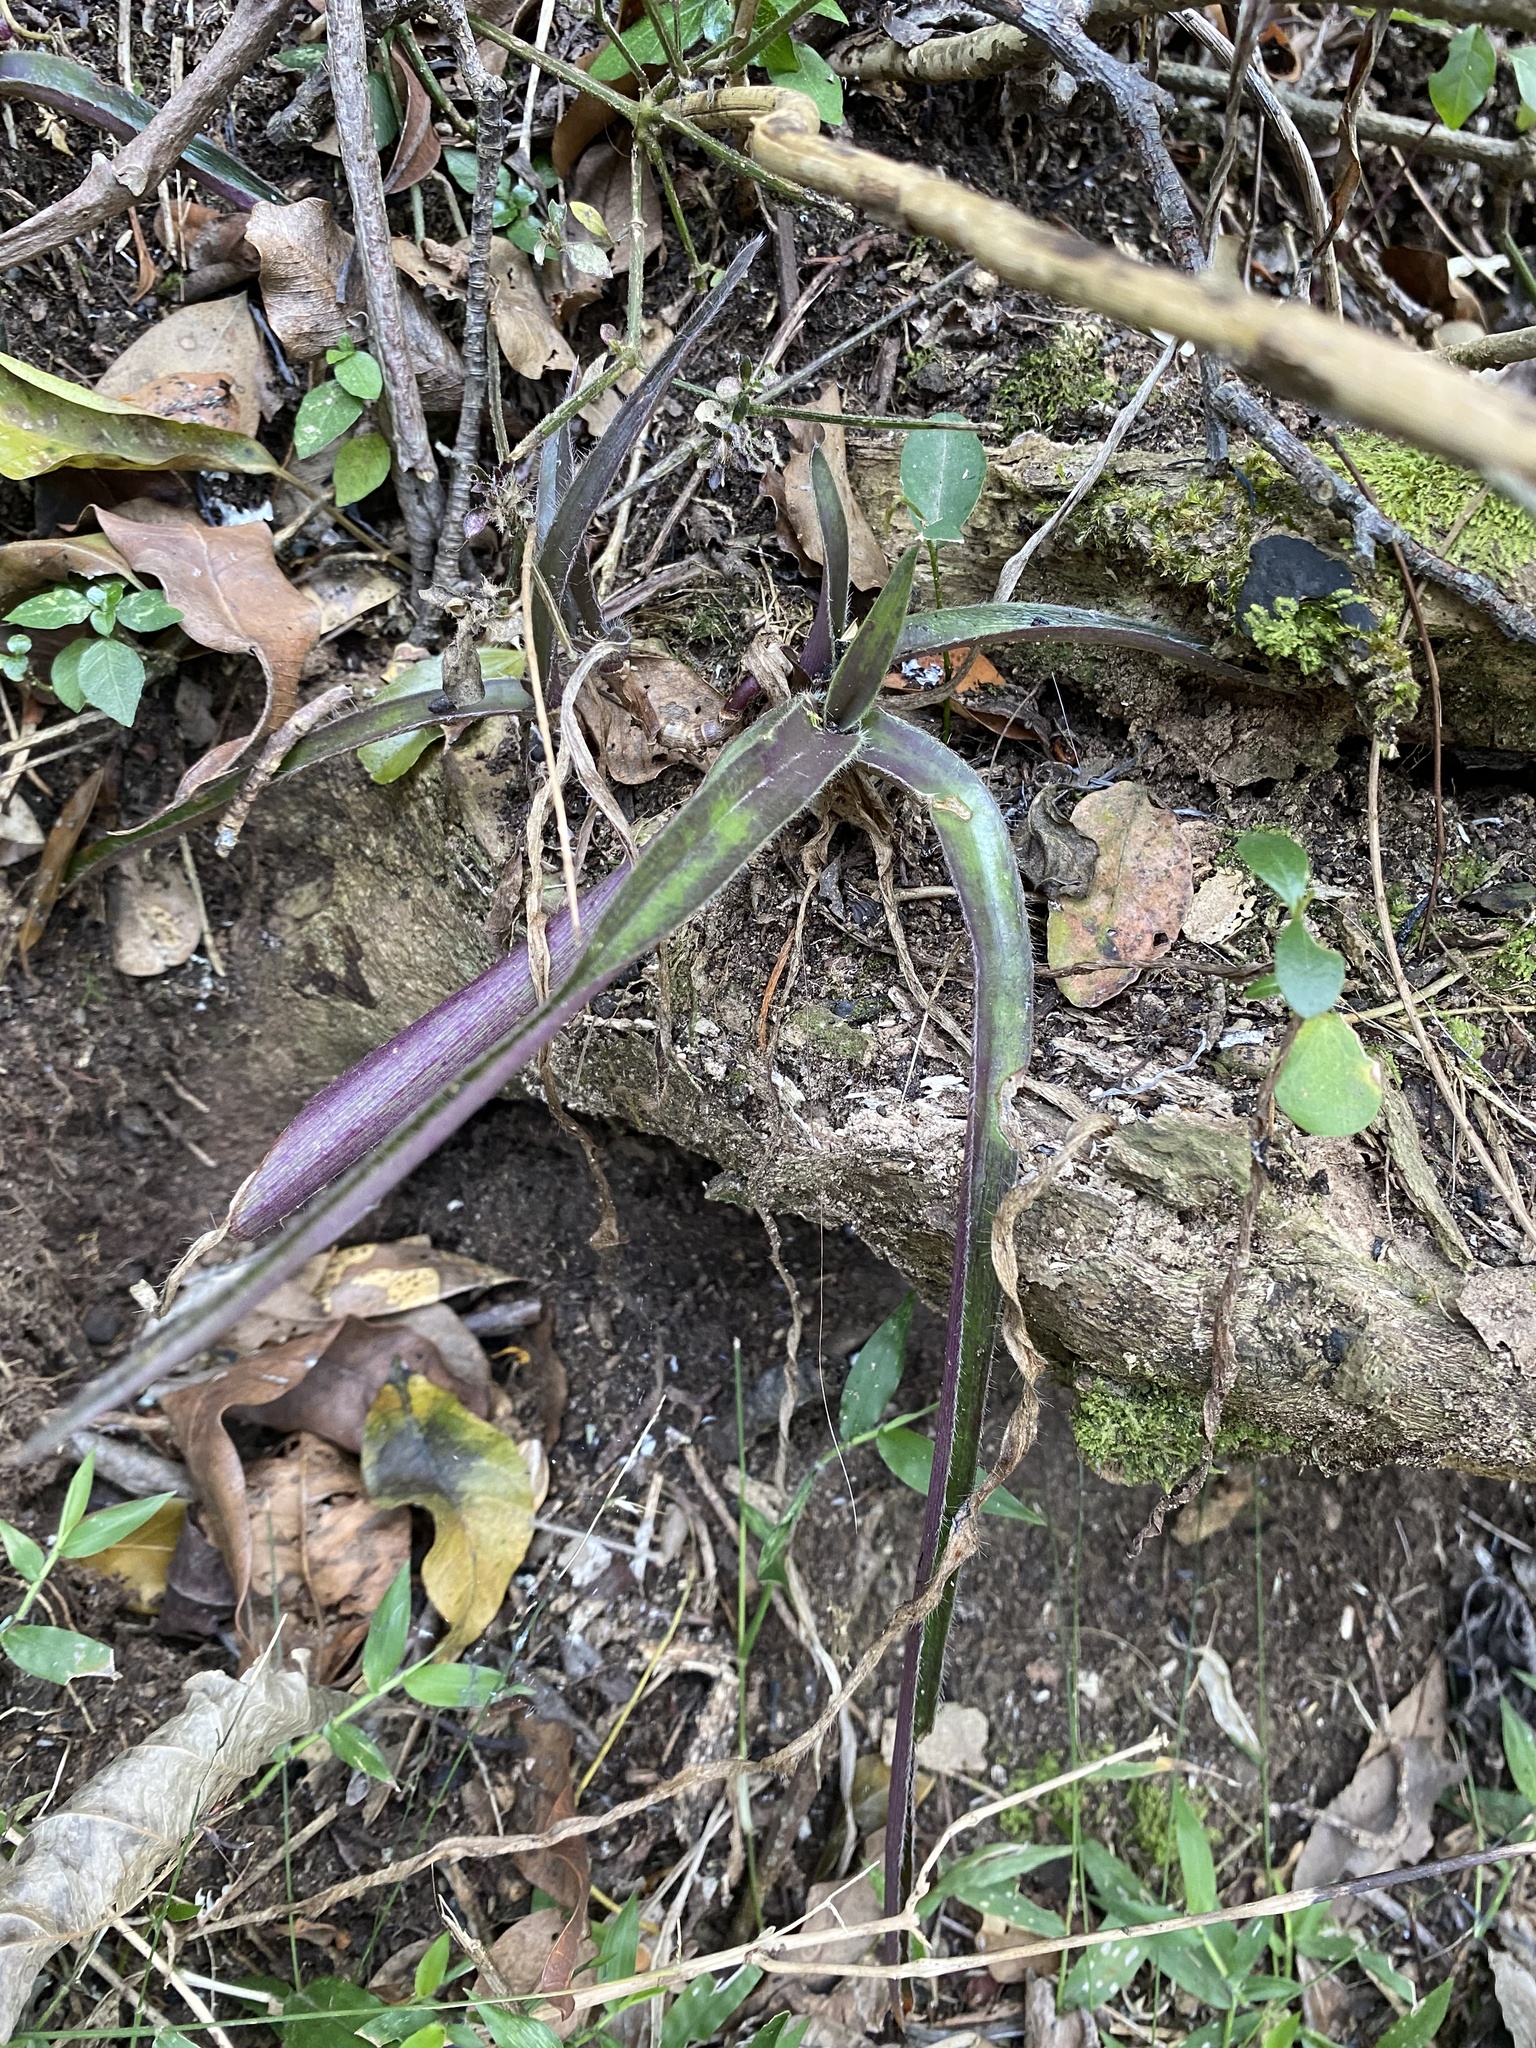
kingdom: Plantae
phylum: Tracheophyta
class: Liliopsida
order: Commelinales
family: Commelinaceae
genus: Cyanotis
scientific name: Cyanotis speciosa
